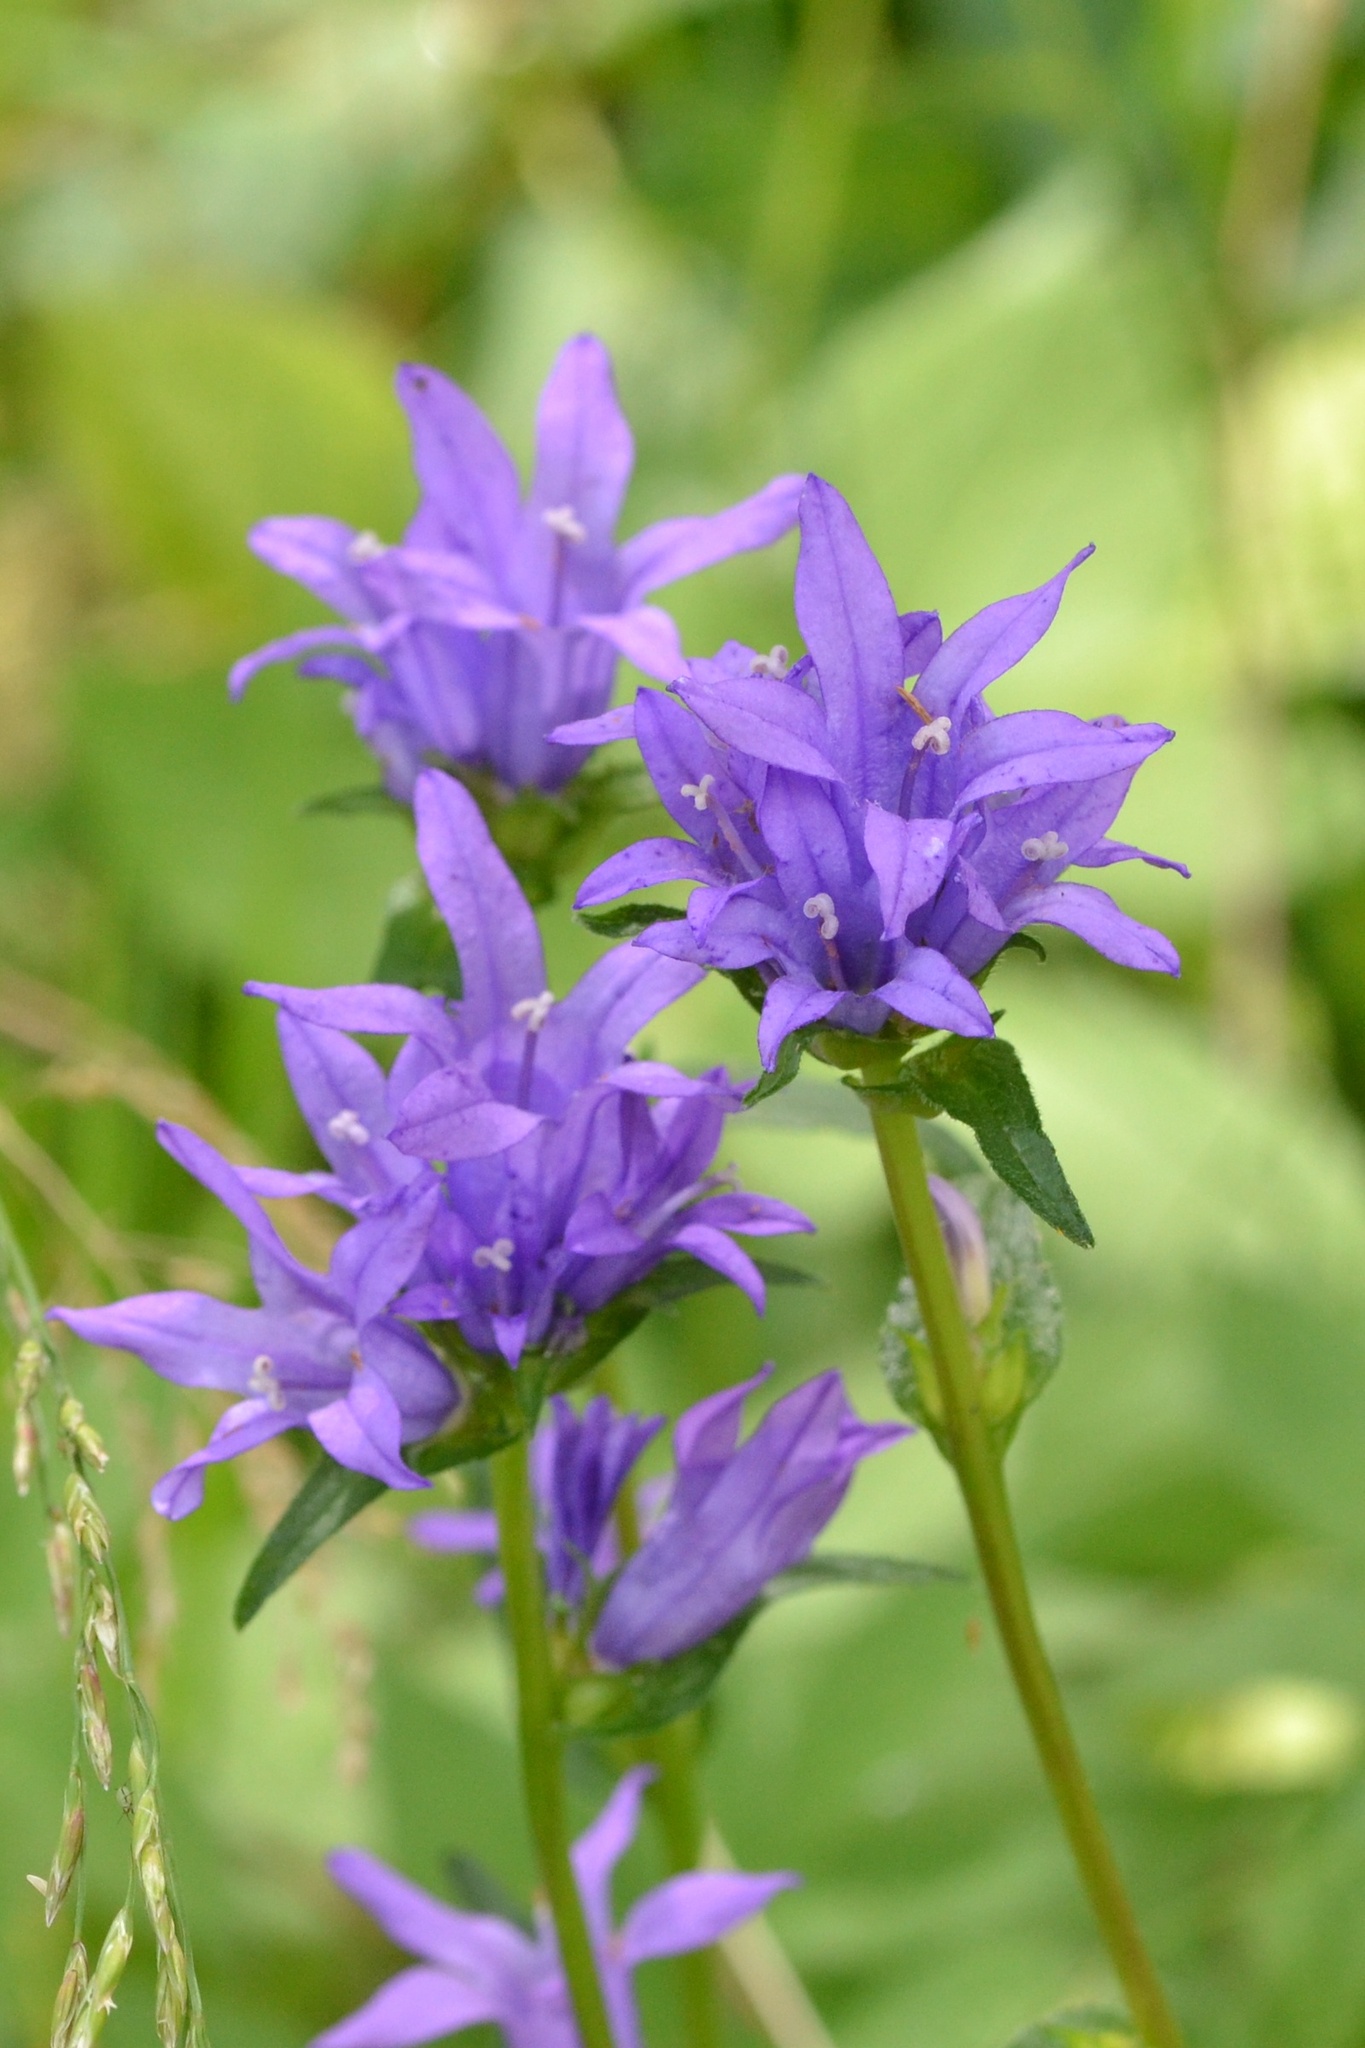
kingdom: Plantae
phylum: Tracheophyta
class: Magnoliopsida
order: Asterales
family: Campanulaceae
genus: Campanula
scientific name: Campanula glomerata
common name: Clustered bellflower
